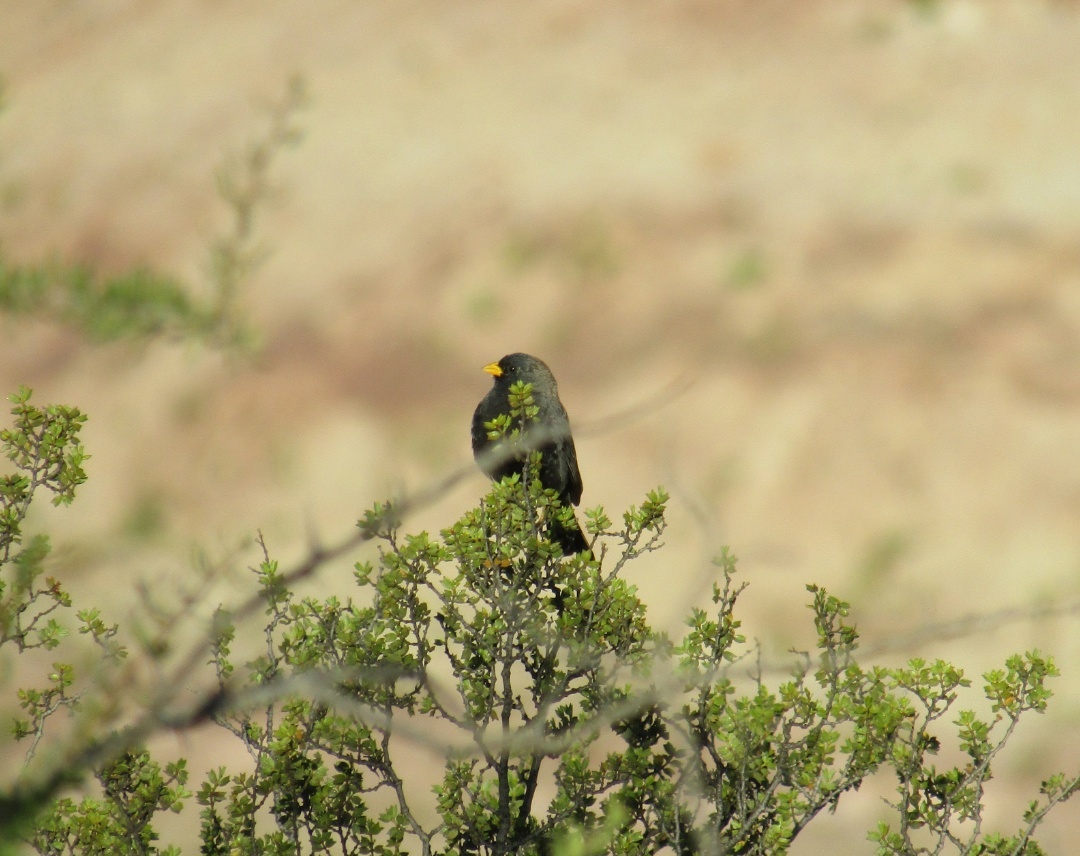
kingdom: Animalia
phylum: Chordata
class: Aves
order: Passeriformes
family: Thraupidae
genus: Porphyrospiza
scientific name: Porphyrospiza carbonaria
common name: Carbon finch
